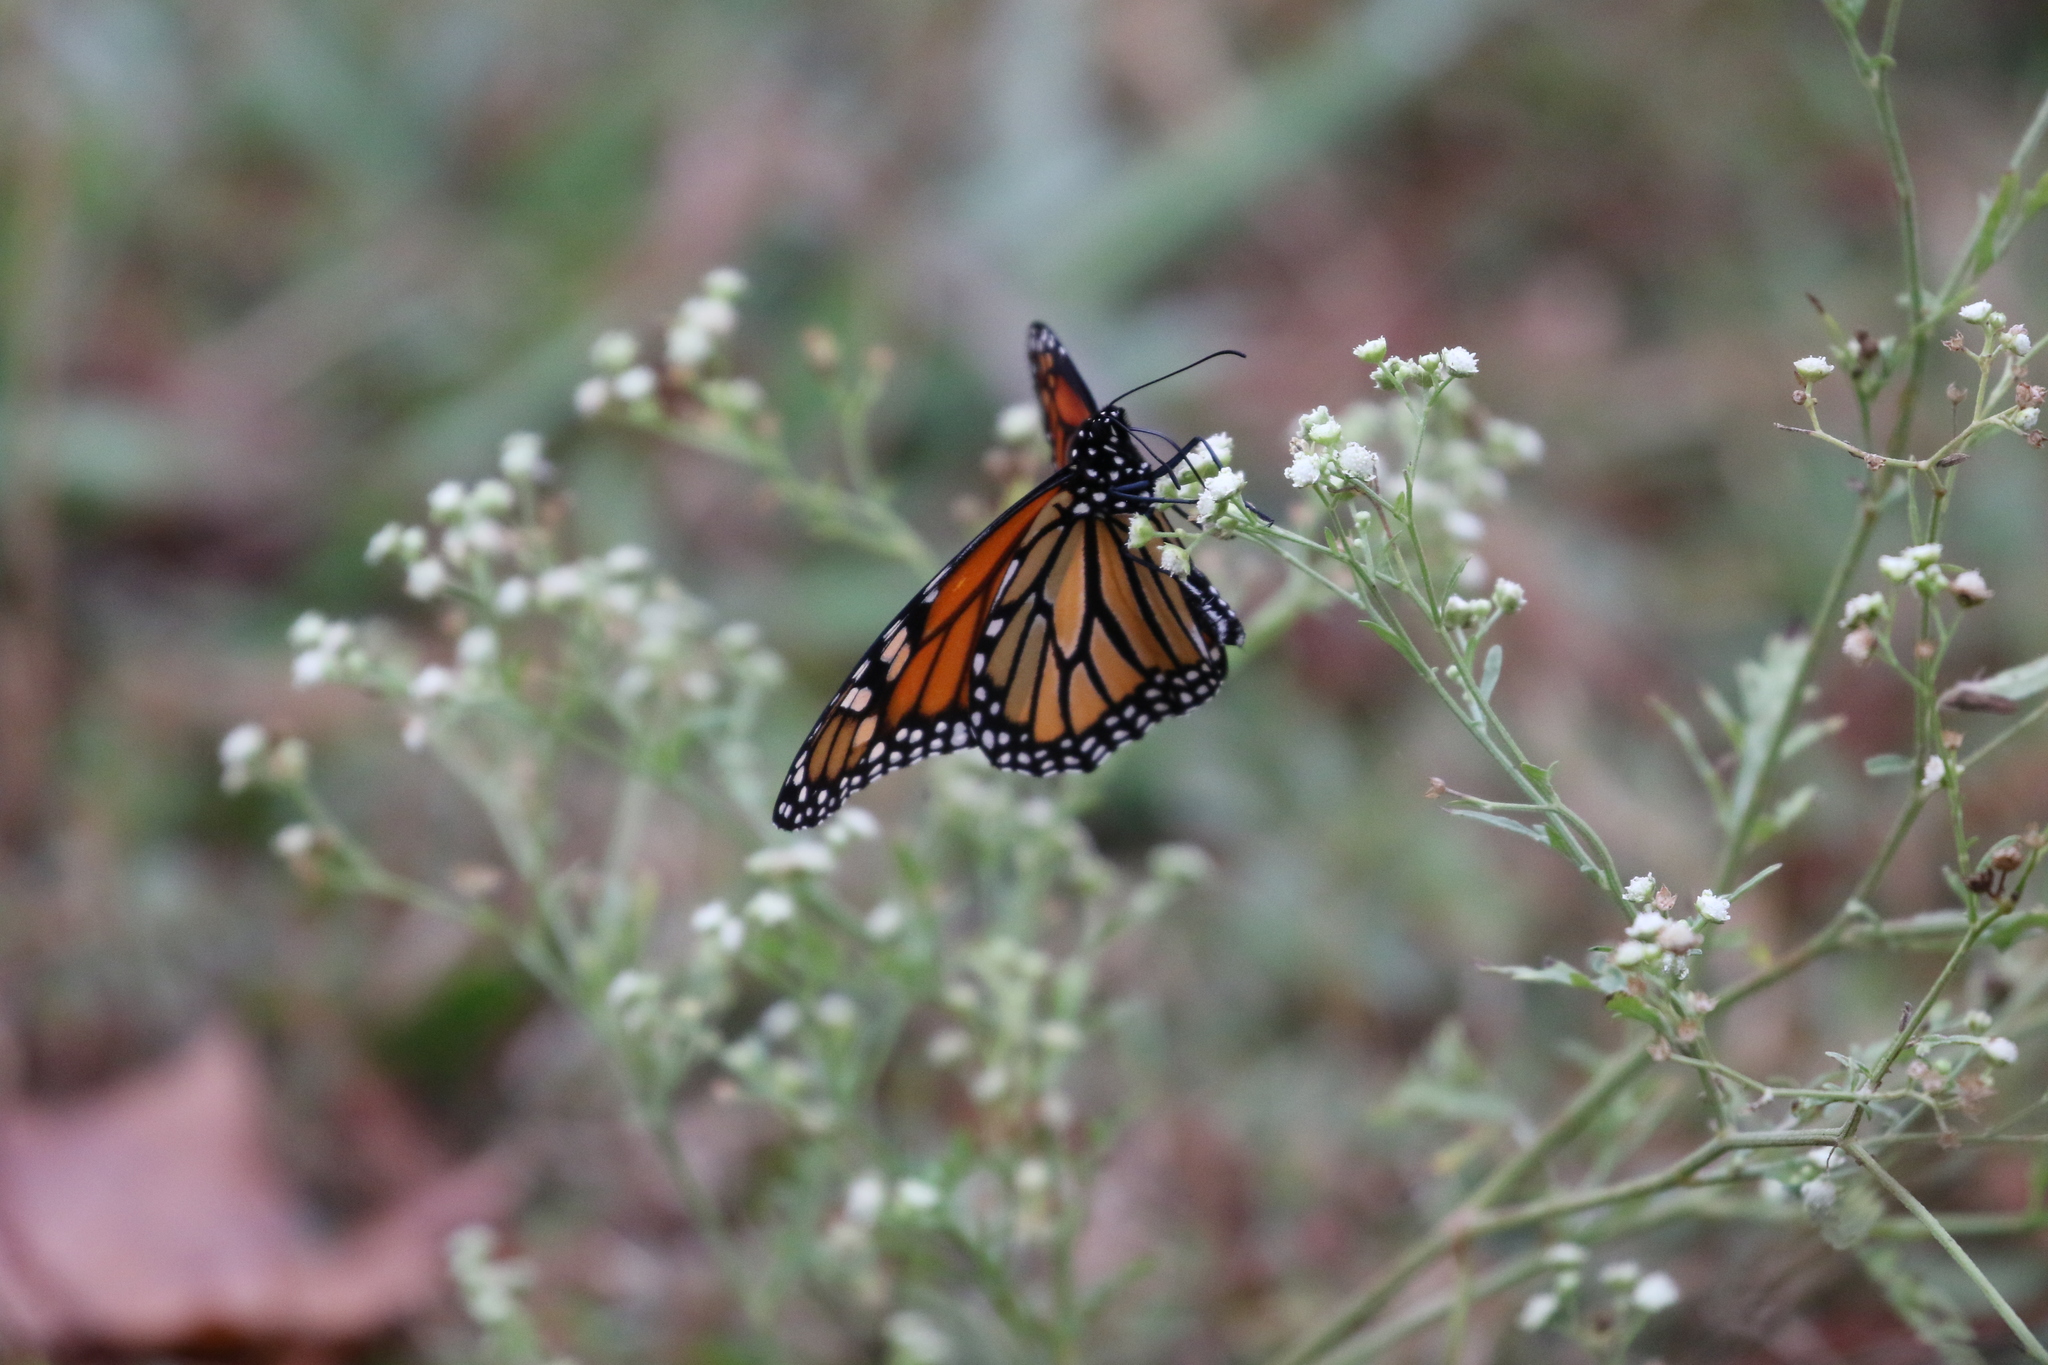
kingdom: Animalia
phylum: Arthropoda
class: Insecta
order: Lepidoptera
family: Nymphalidae
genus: Danaus
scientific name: Danaus plexippus
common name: Monarch
